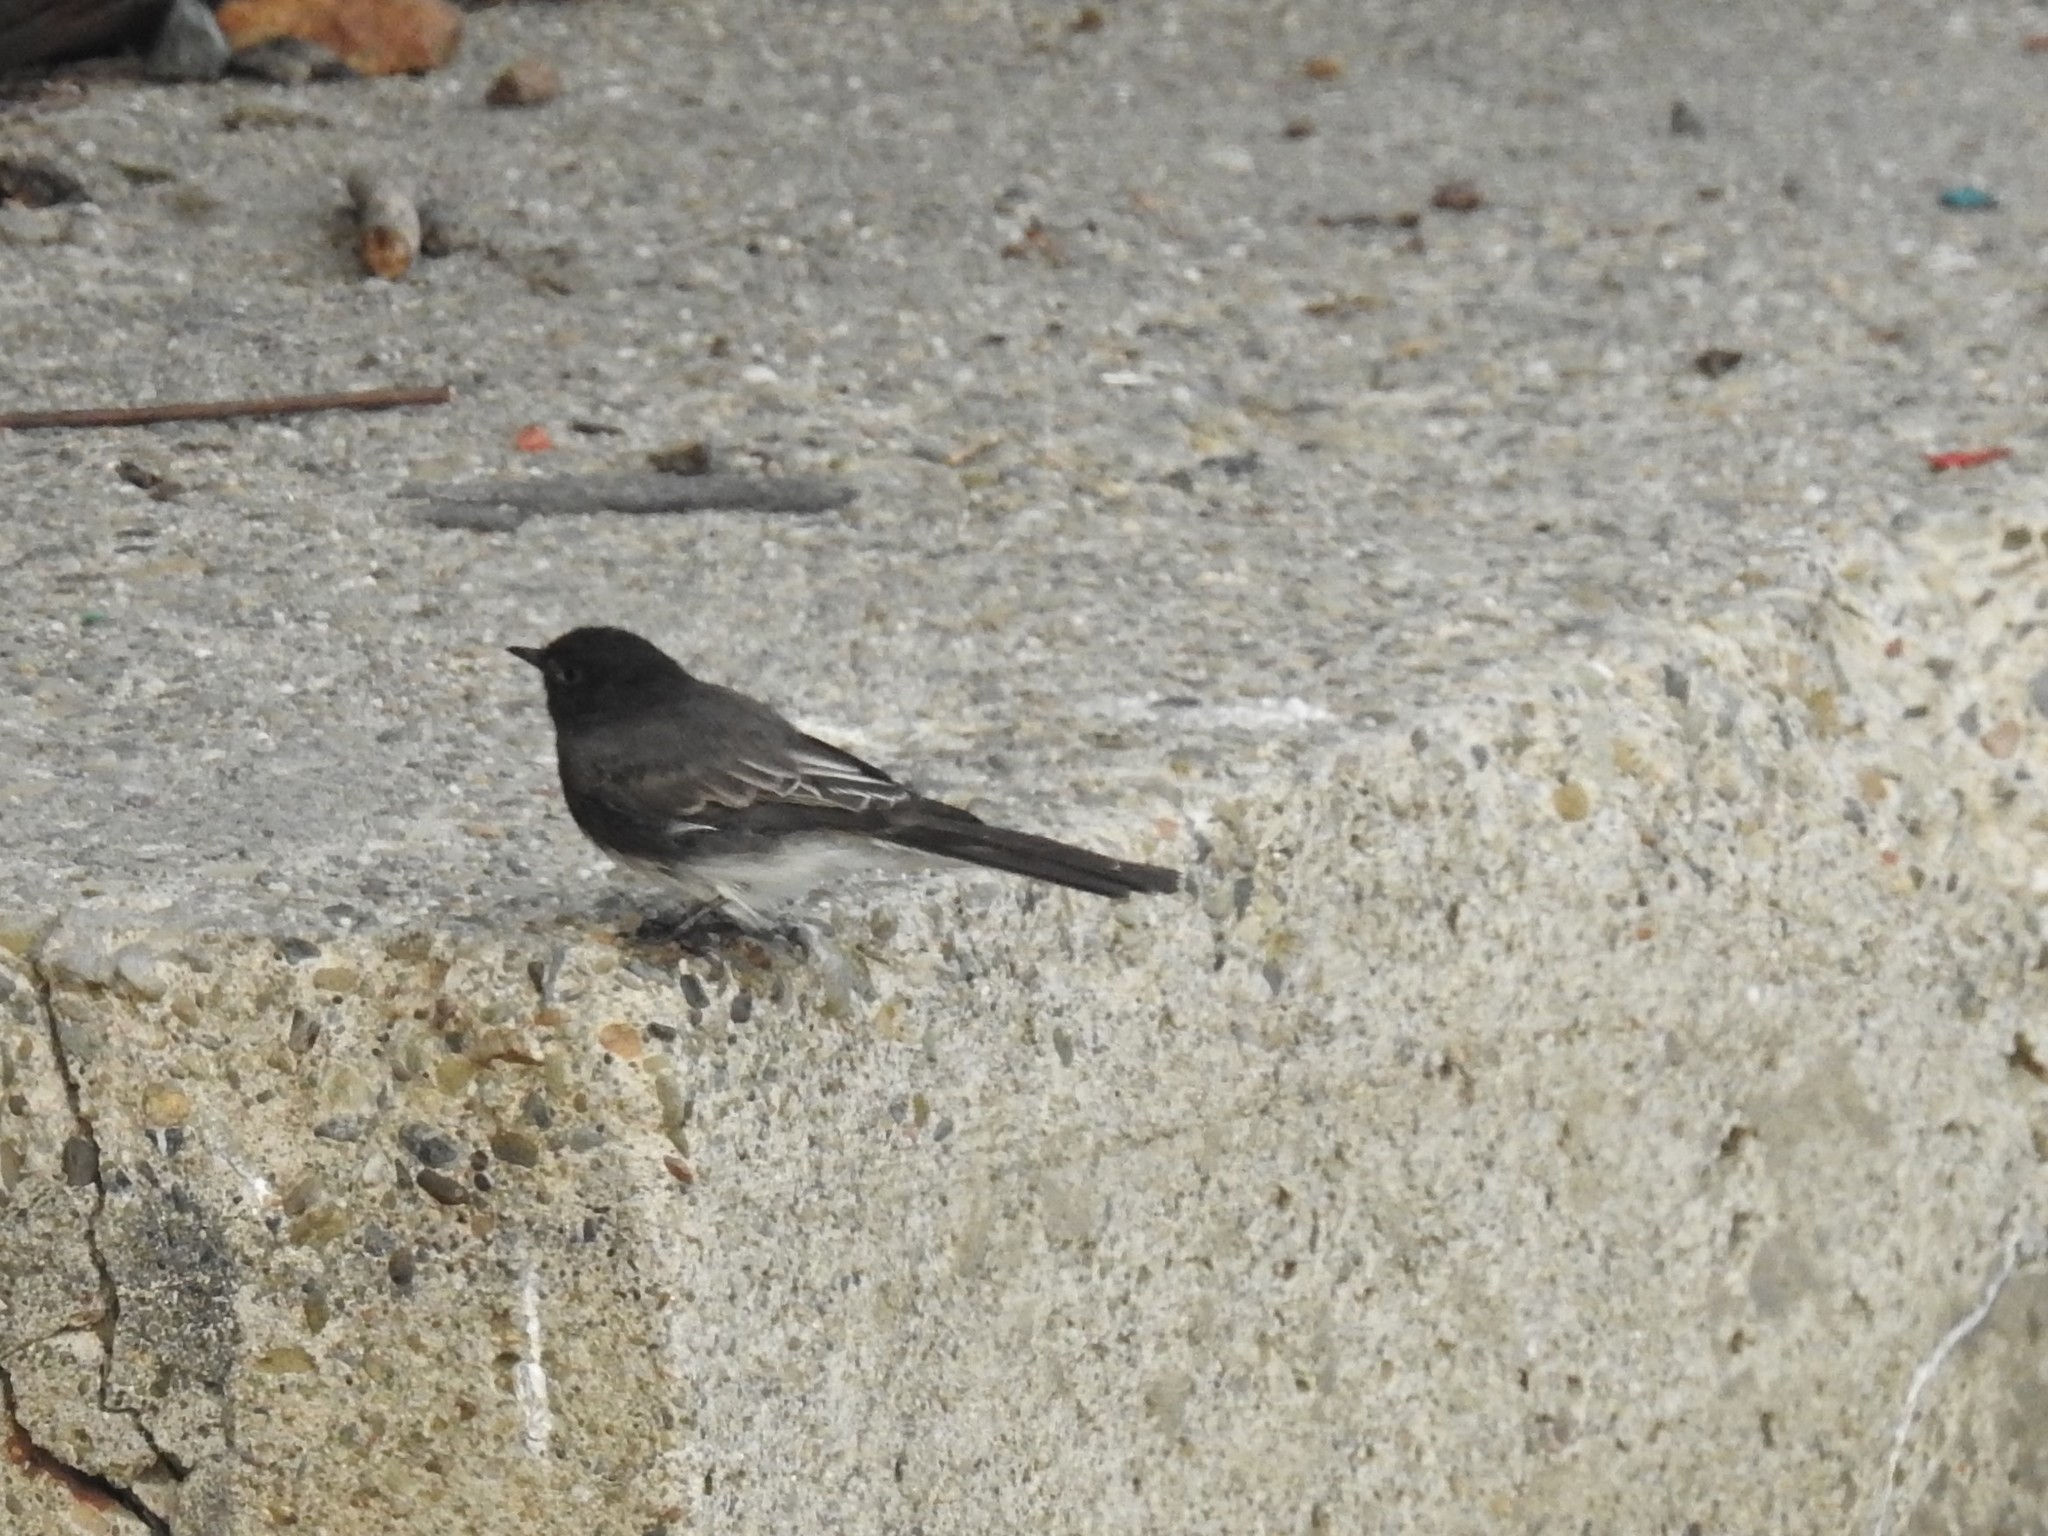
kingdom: Animalia
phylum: Chordata
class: Aves
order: Passeriformes
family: Tyrannidae
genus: Sayornis
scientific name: Sayornis nigricans
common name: Black phoebe
